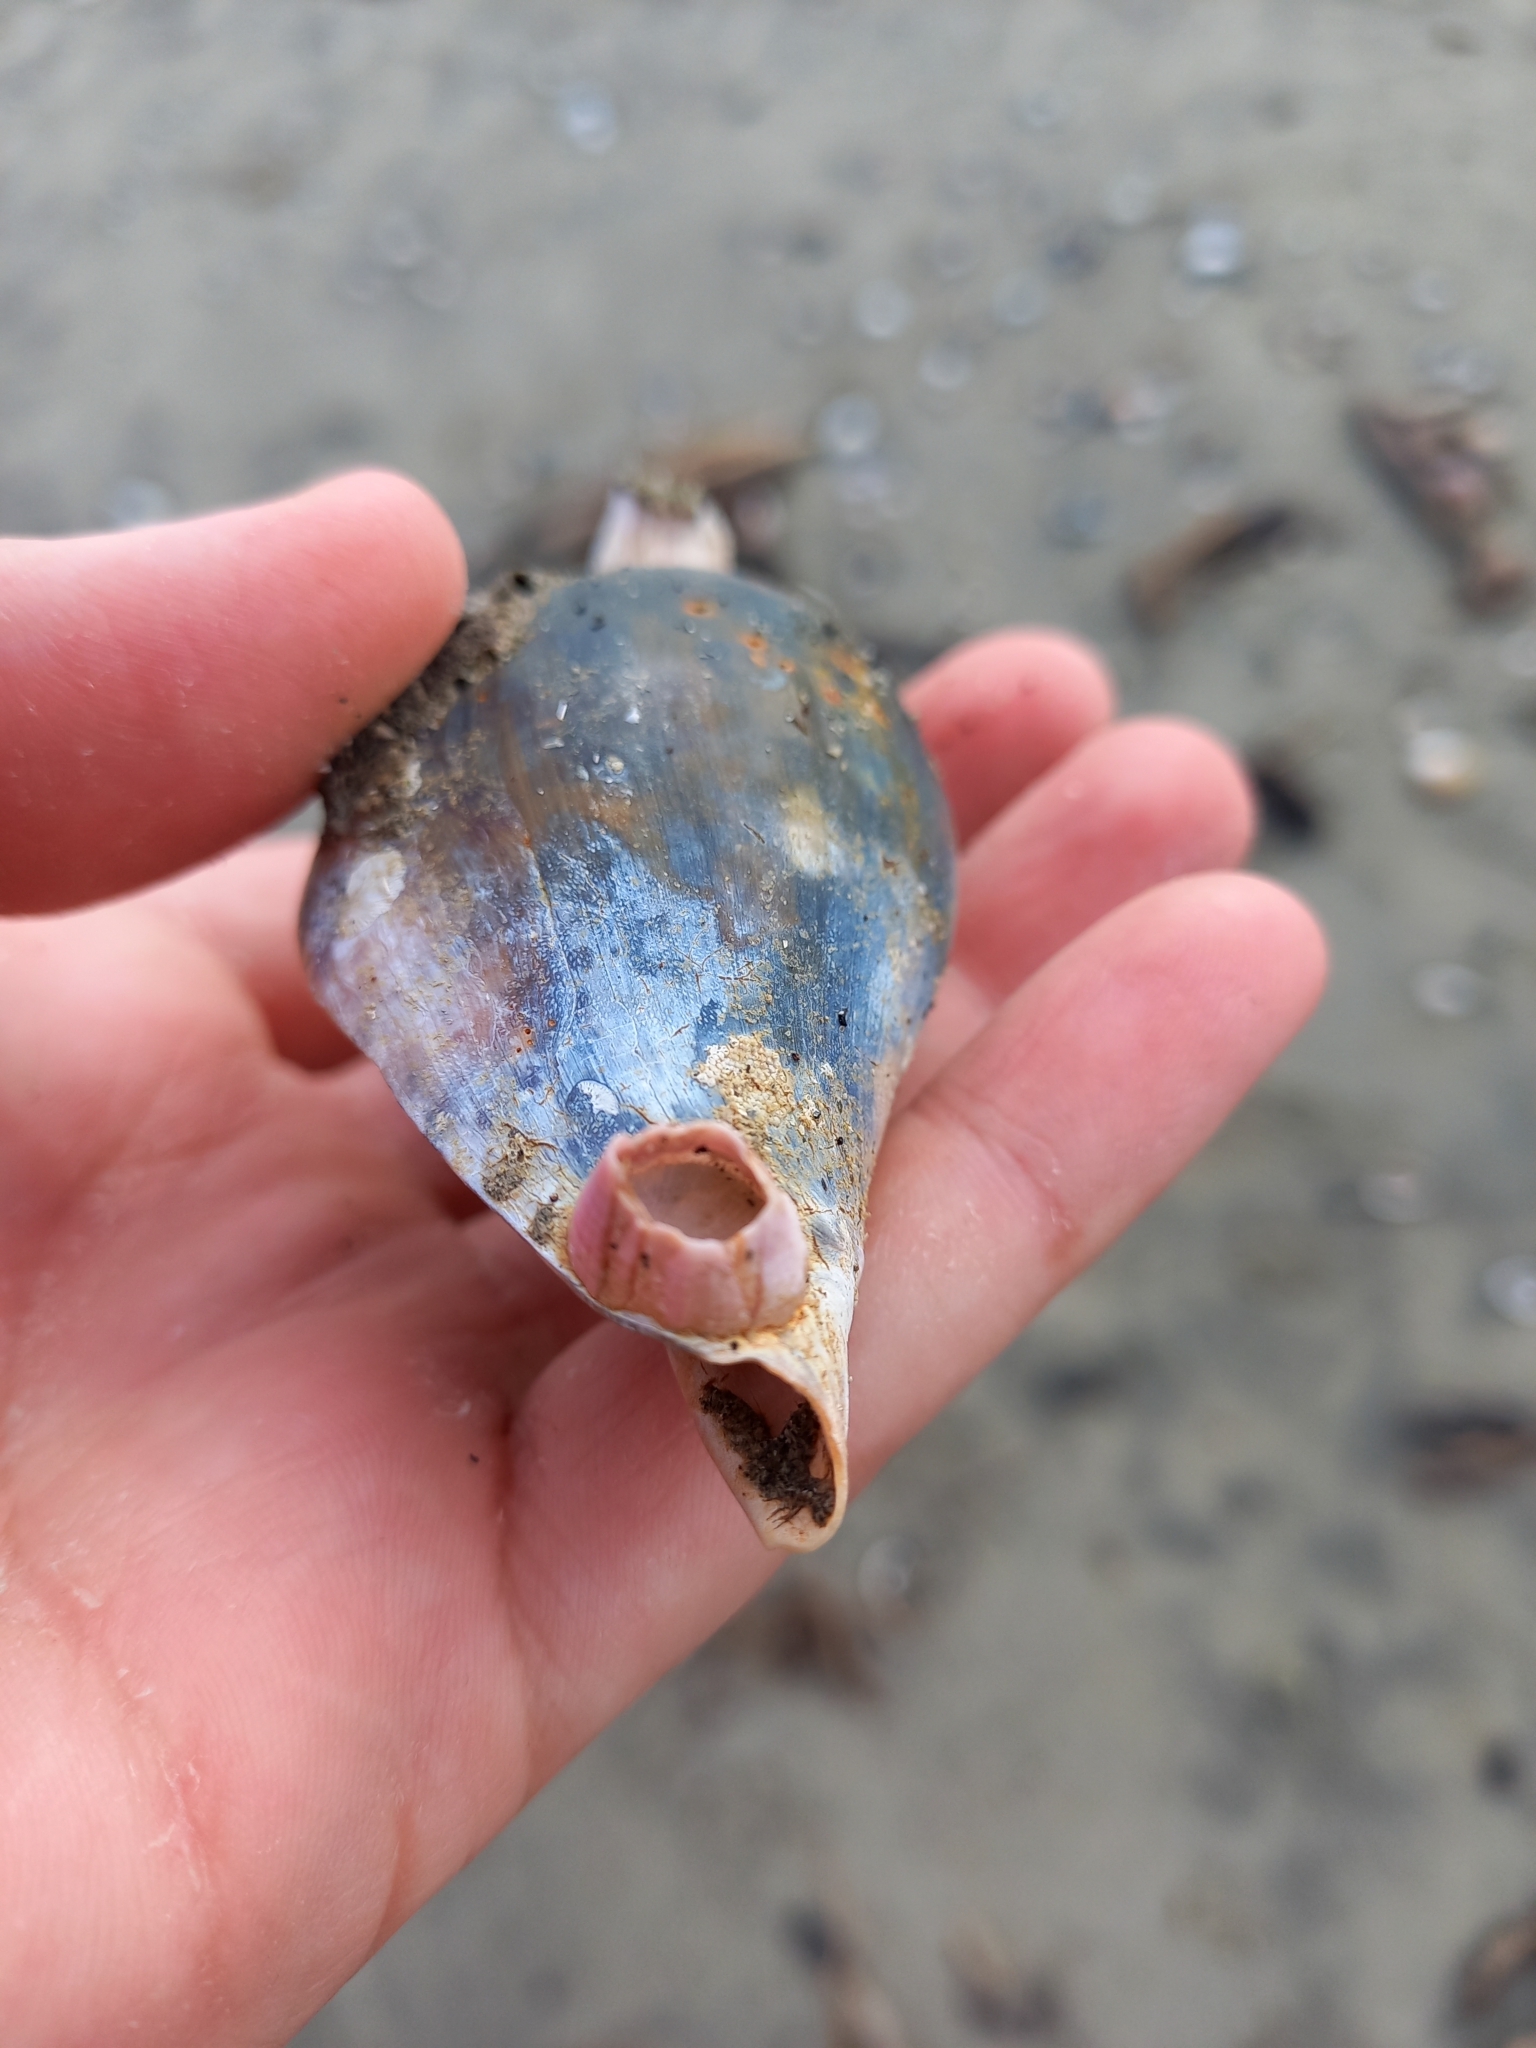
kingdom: Animalia
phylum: Arthropoda
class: Maxillopoda
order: Sessilia
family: Balanidae
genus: Notomegabalanus
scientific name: Notomegabalanus decorus
